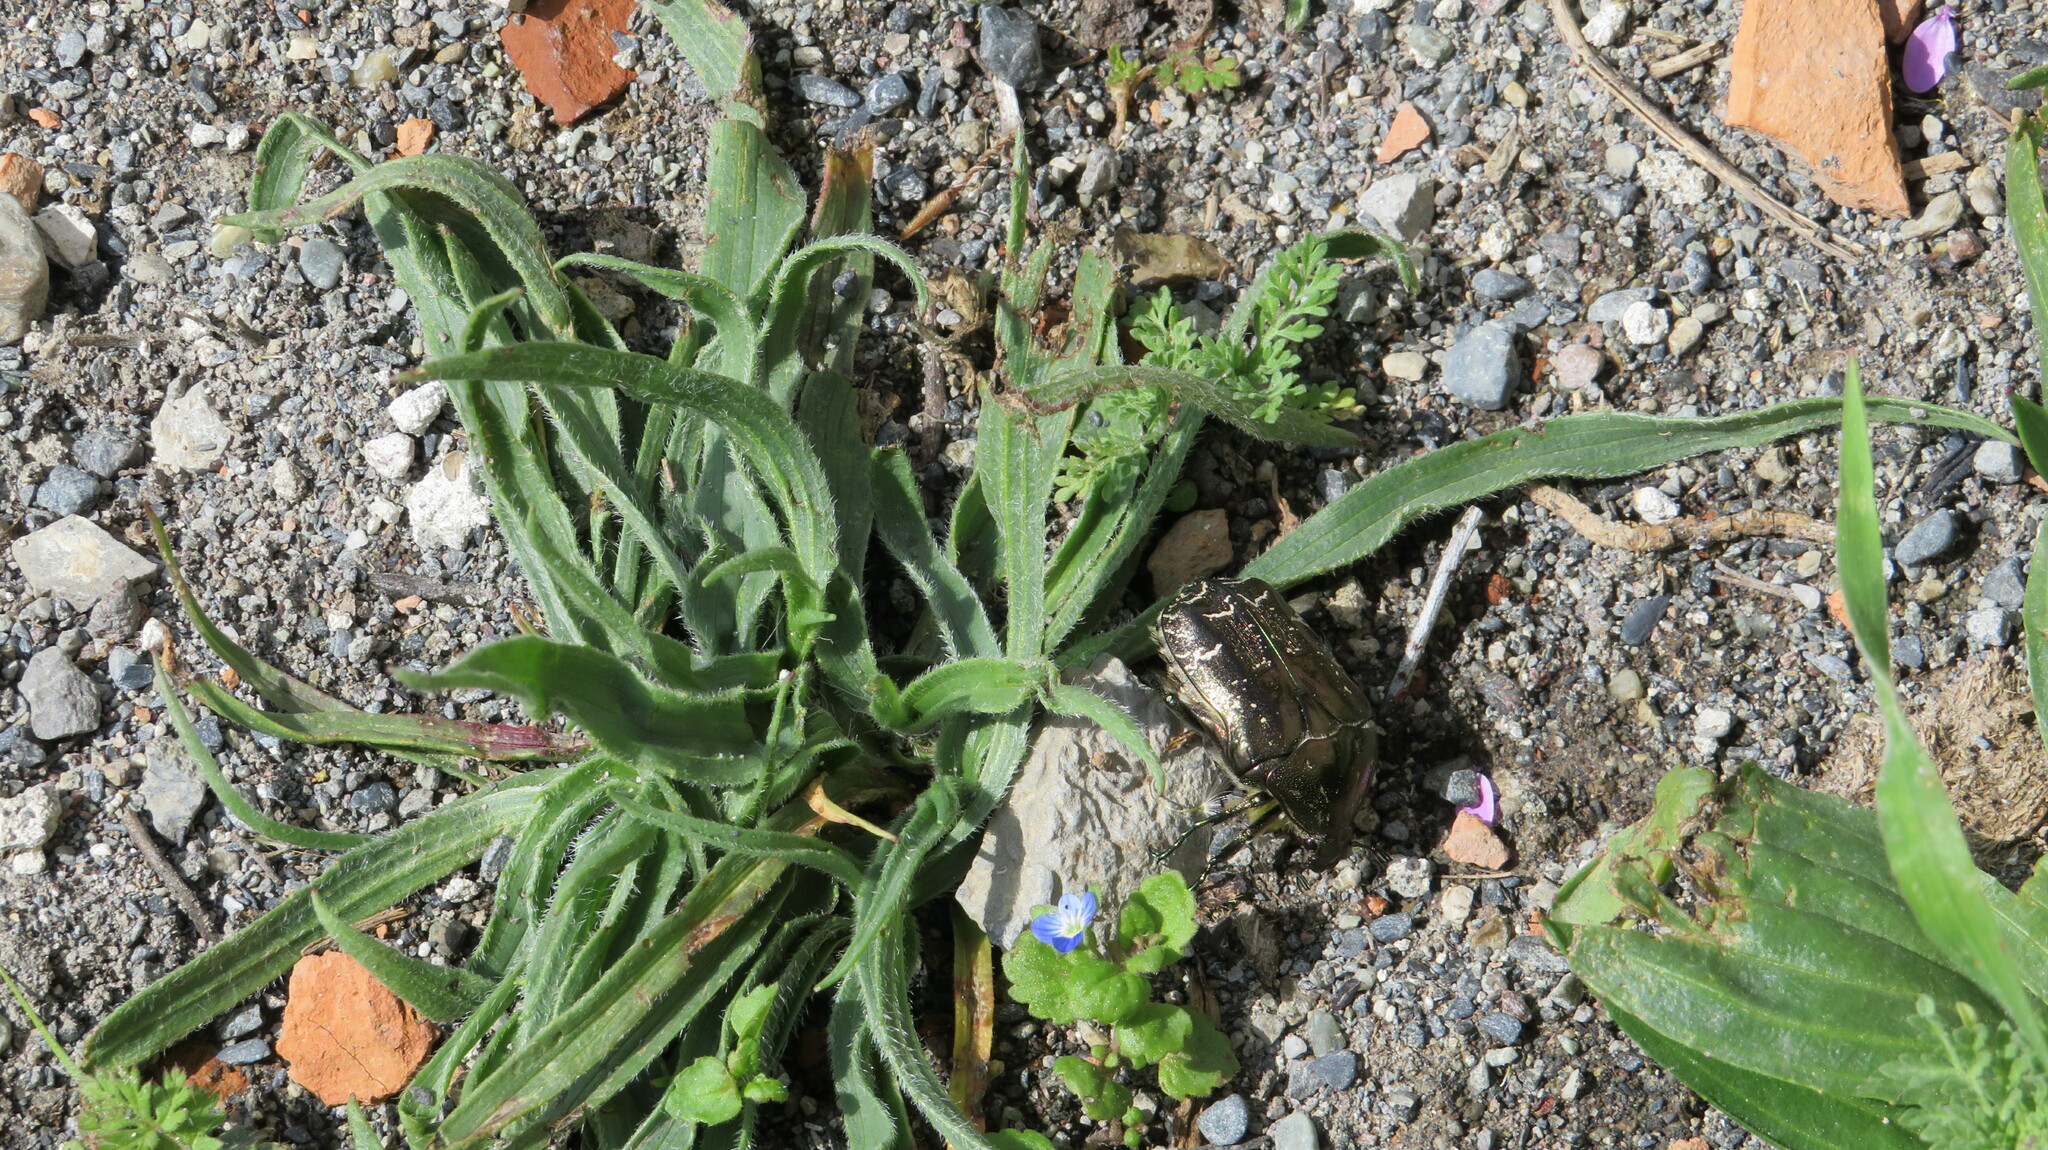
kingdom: Animalia
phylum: Arthropoda
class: Insecta
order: Coleoptera
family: Scarabaeidae
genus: Protaetia
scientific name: Protaetia cuprea
